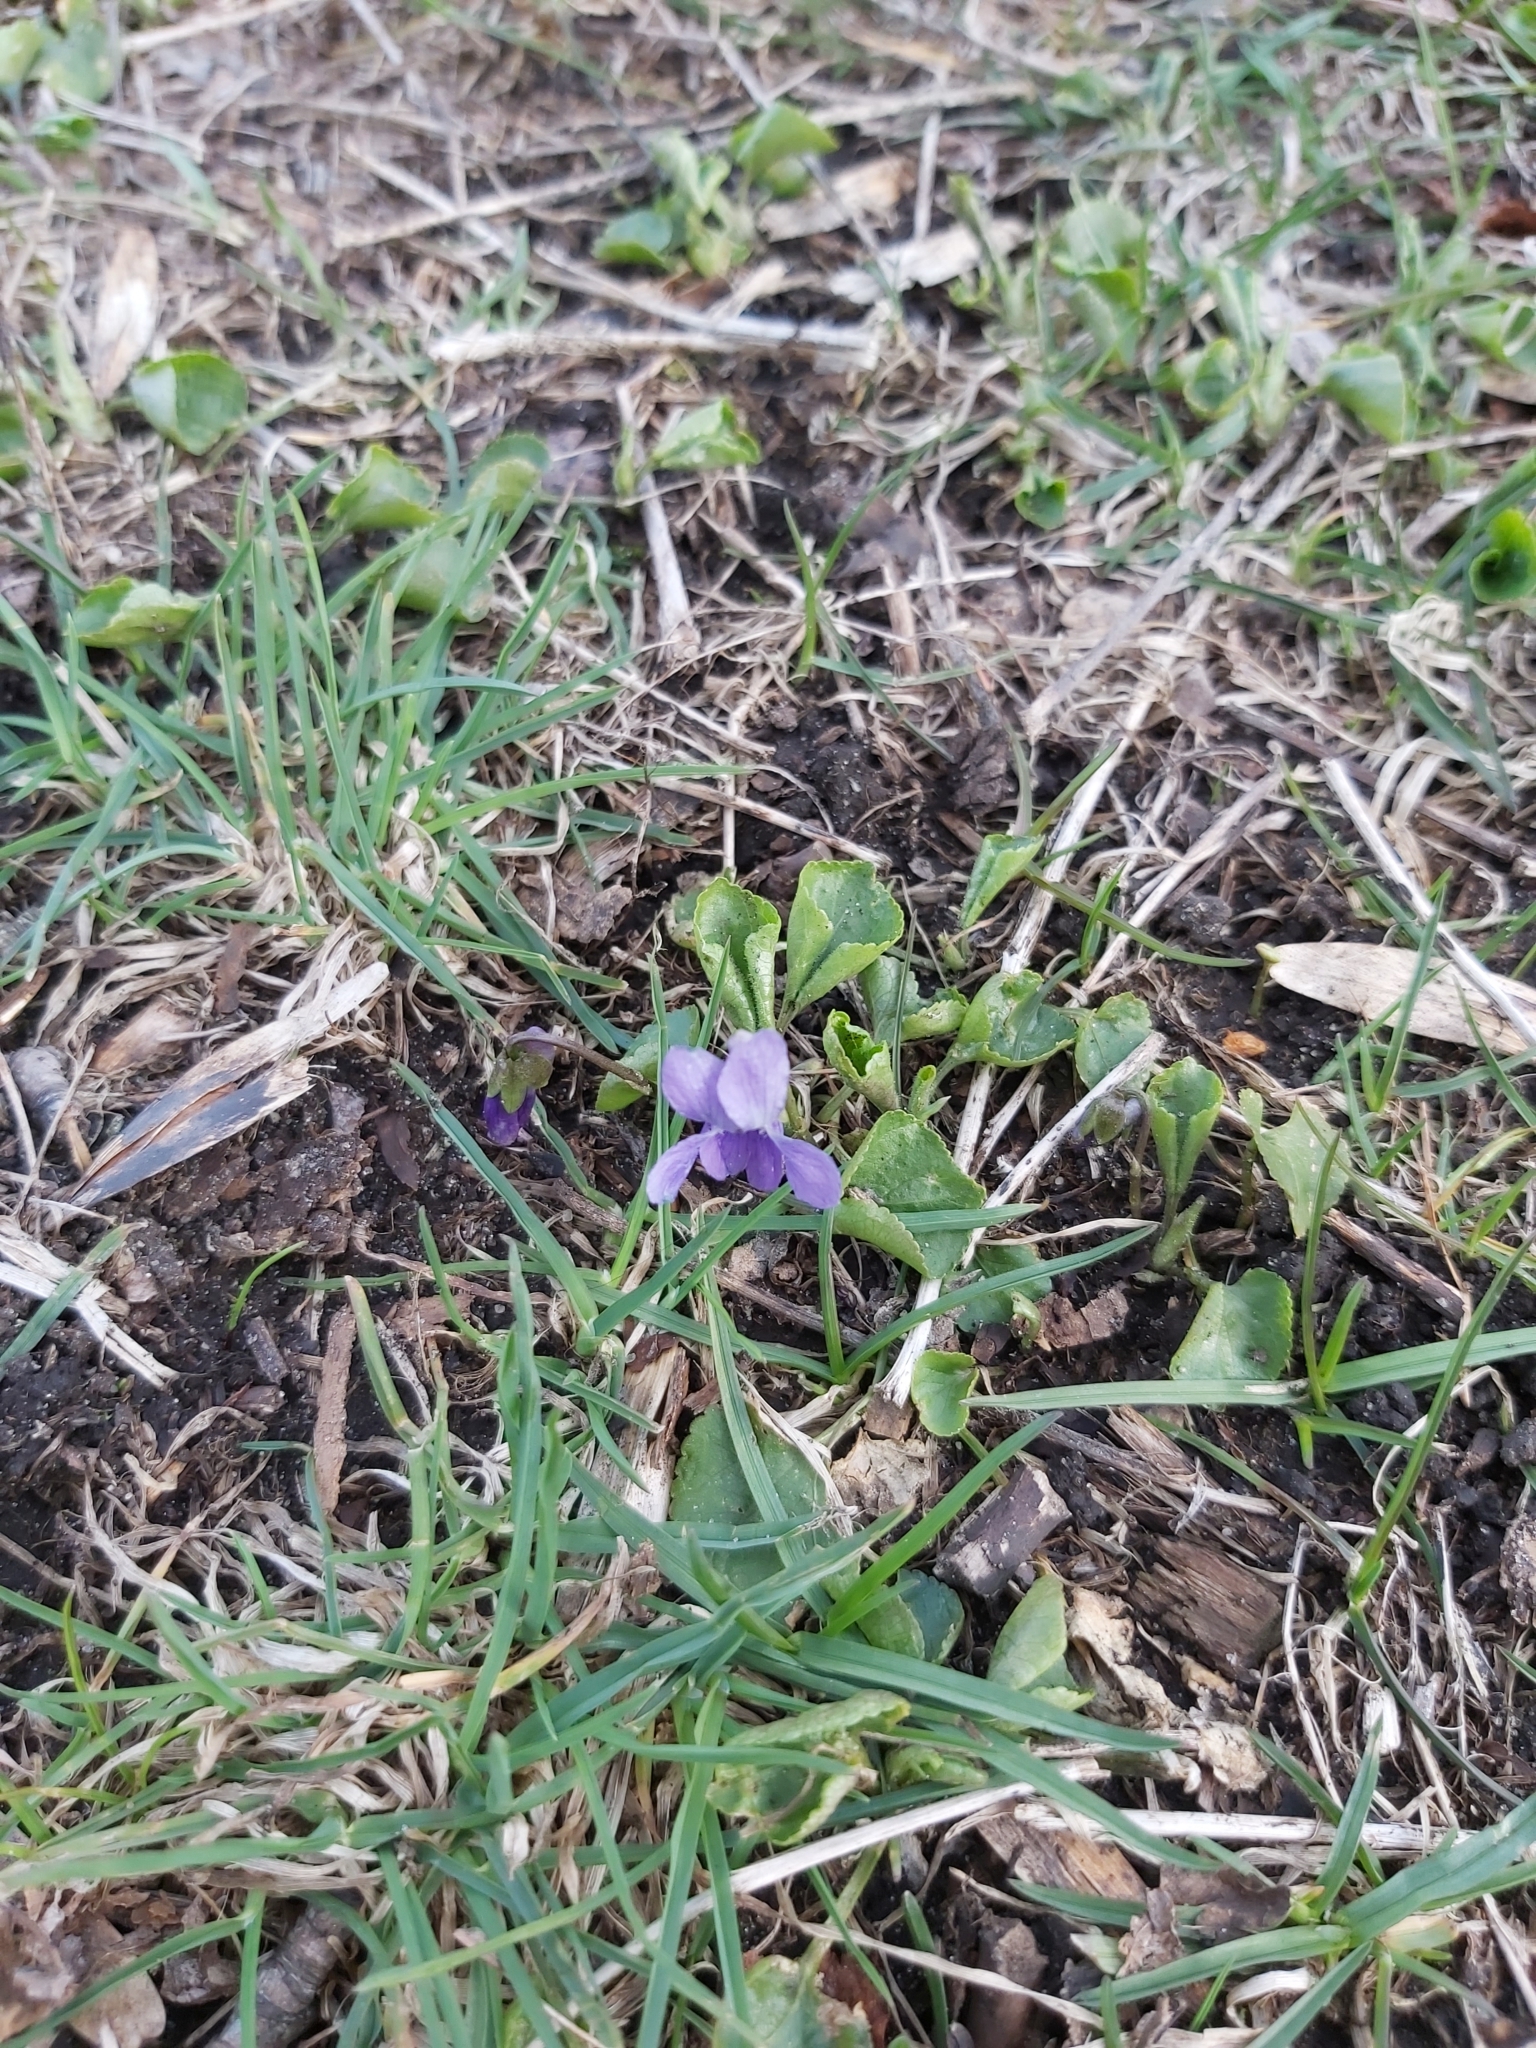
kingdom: Plantae
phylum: Tracheophyta
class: Magnoliopsida
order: Malpighiales
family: Violaceae
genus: Viola
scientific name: Viola odorata
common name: Sweet violet
